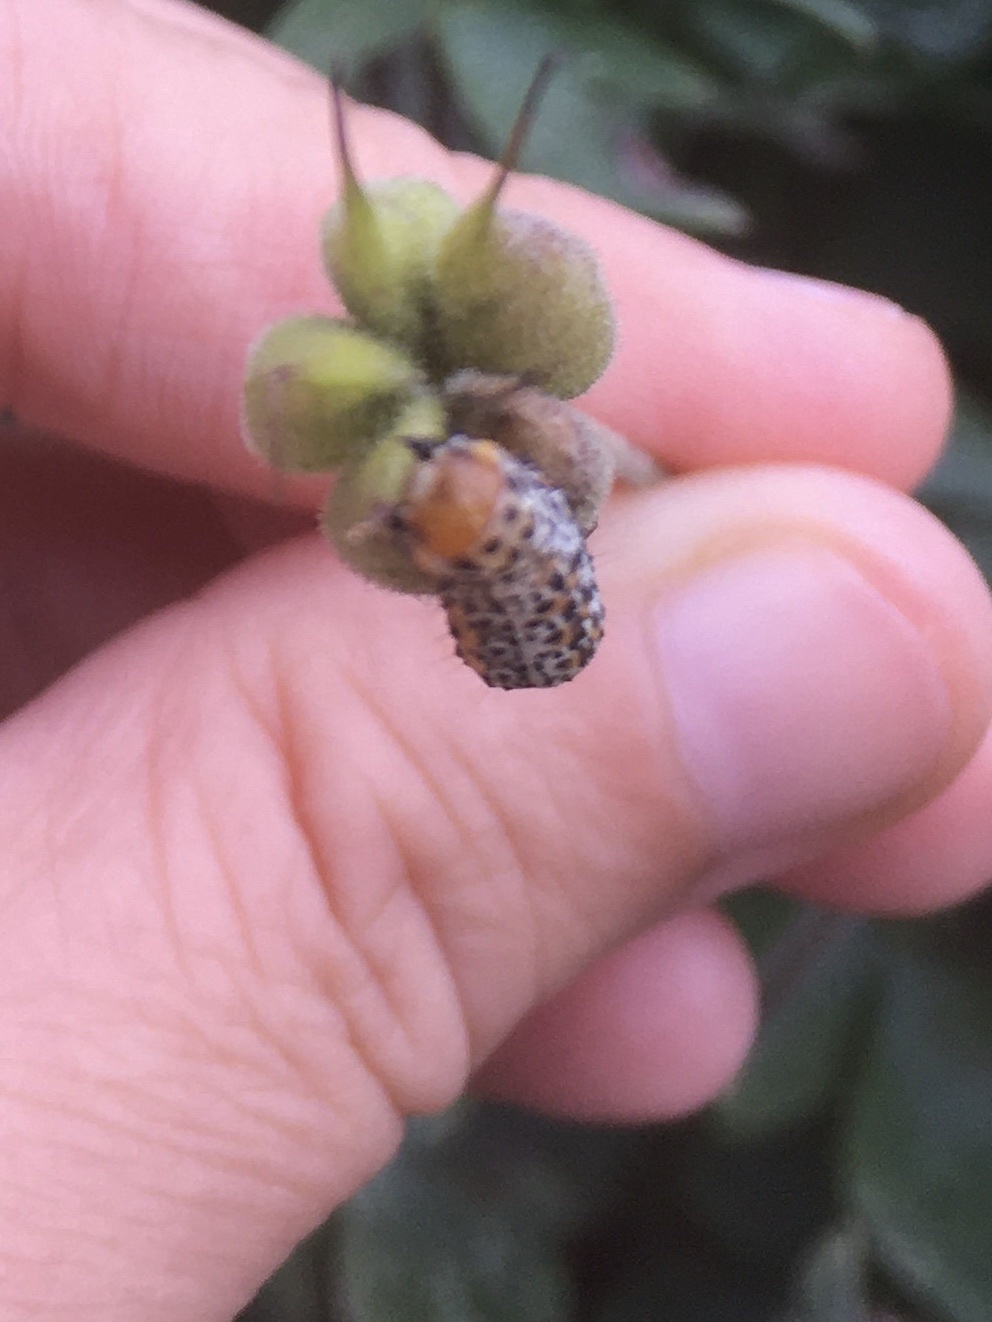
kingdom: Animalia
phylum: Arthropoda
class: Insecta
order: Lepidoptera
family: Noctuidae
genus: Pyrrhia
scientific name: Pyrrhia exprimens
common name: Purple-lined sallow
